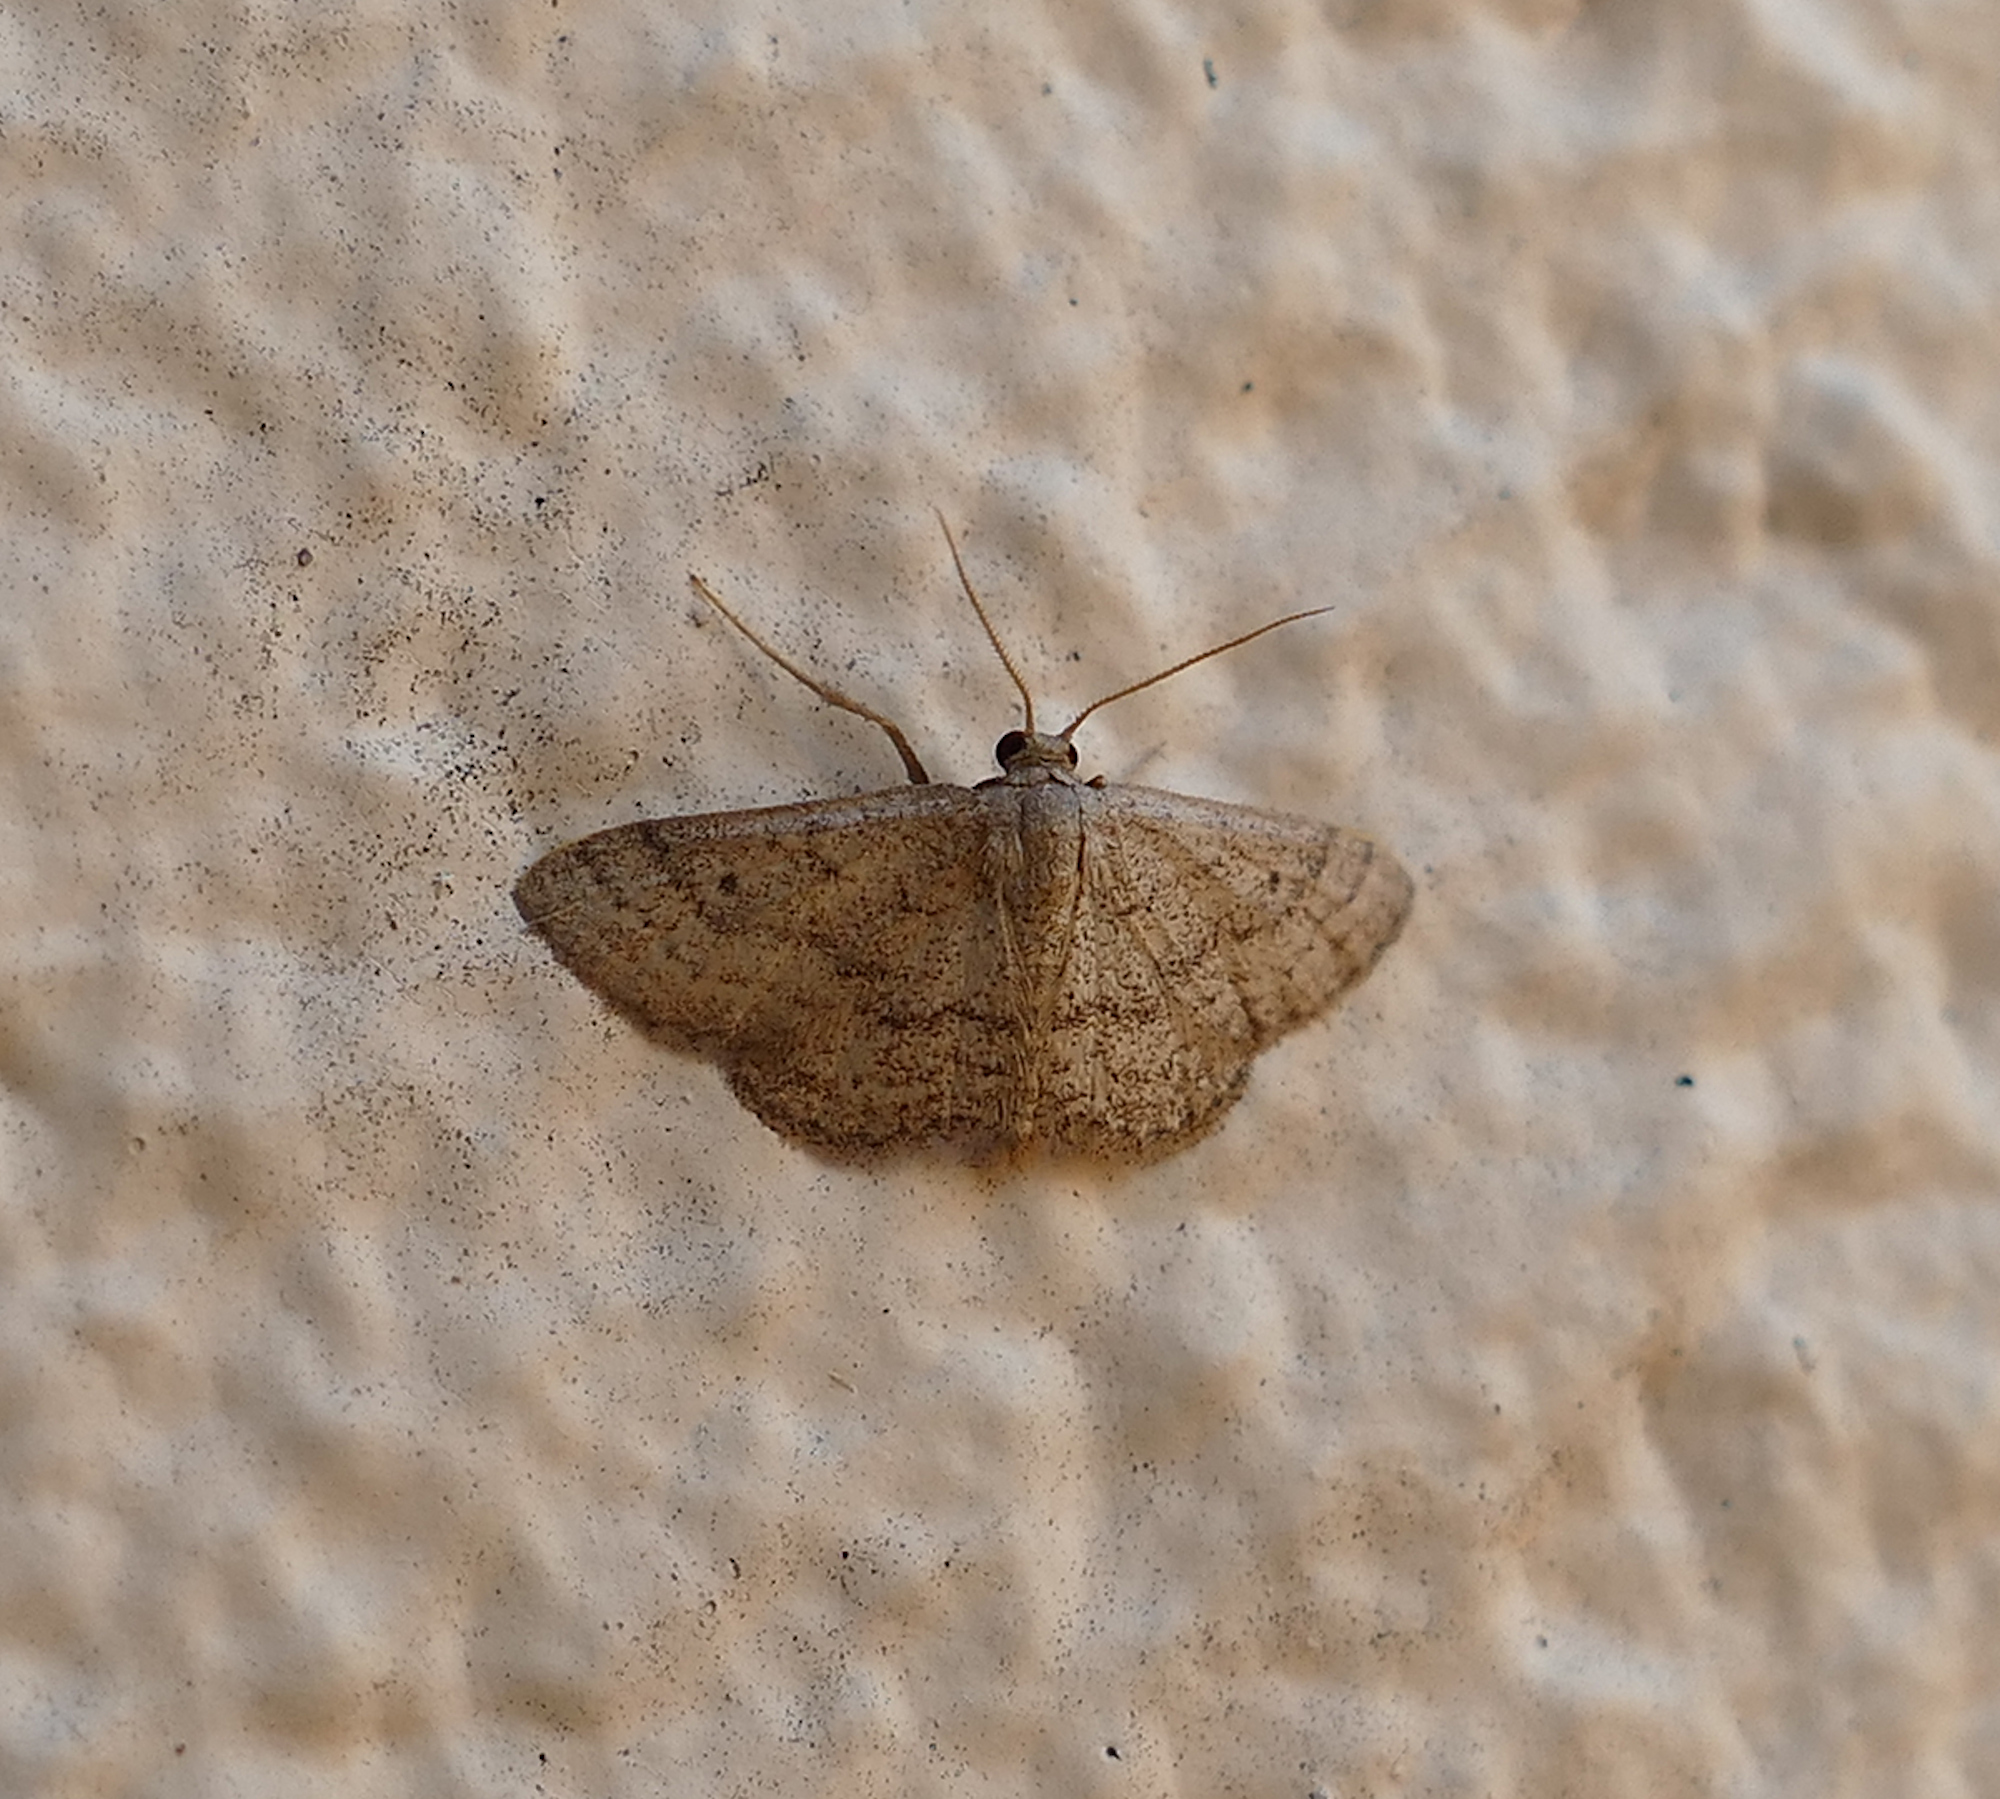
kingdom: Animalia
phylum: Arthropoda
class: Insecta
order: Lepidoptera
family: Geometridae
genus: Lobocleta
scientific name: Lobocleta ossularia
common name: Drab brown wave
